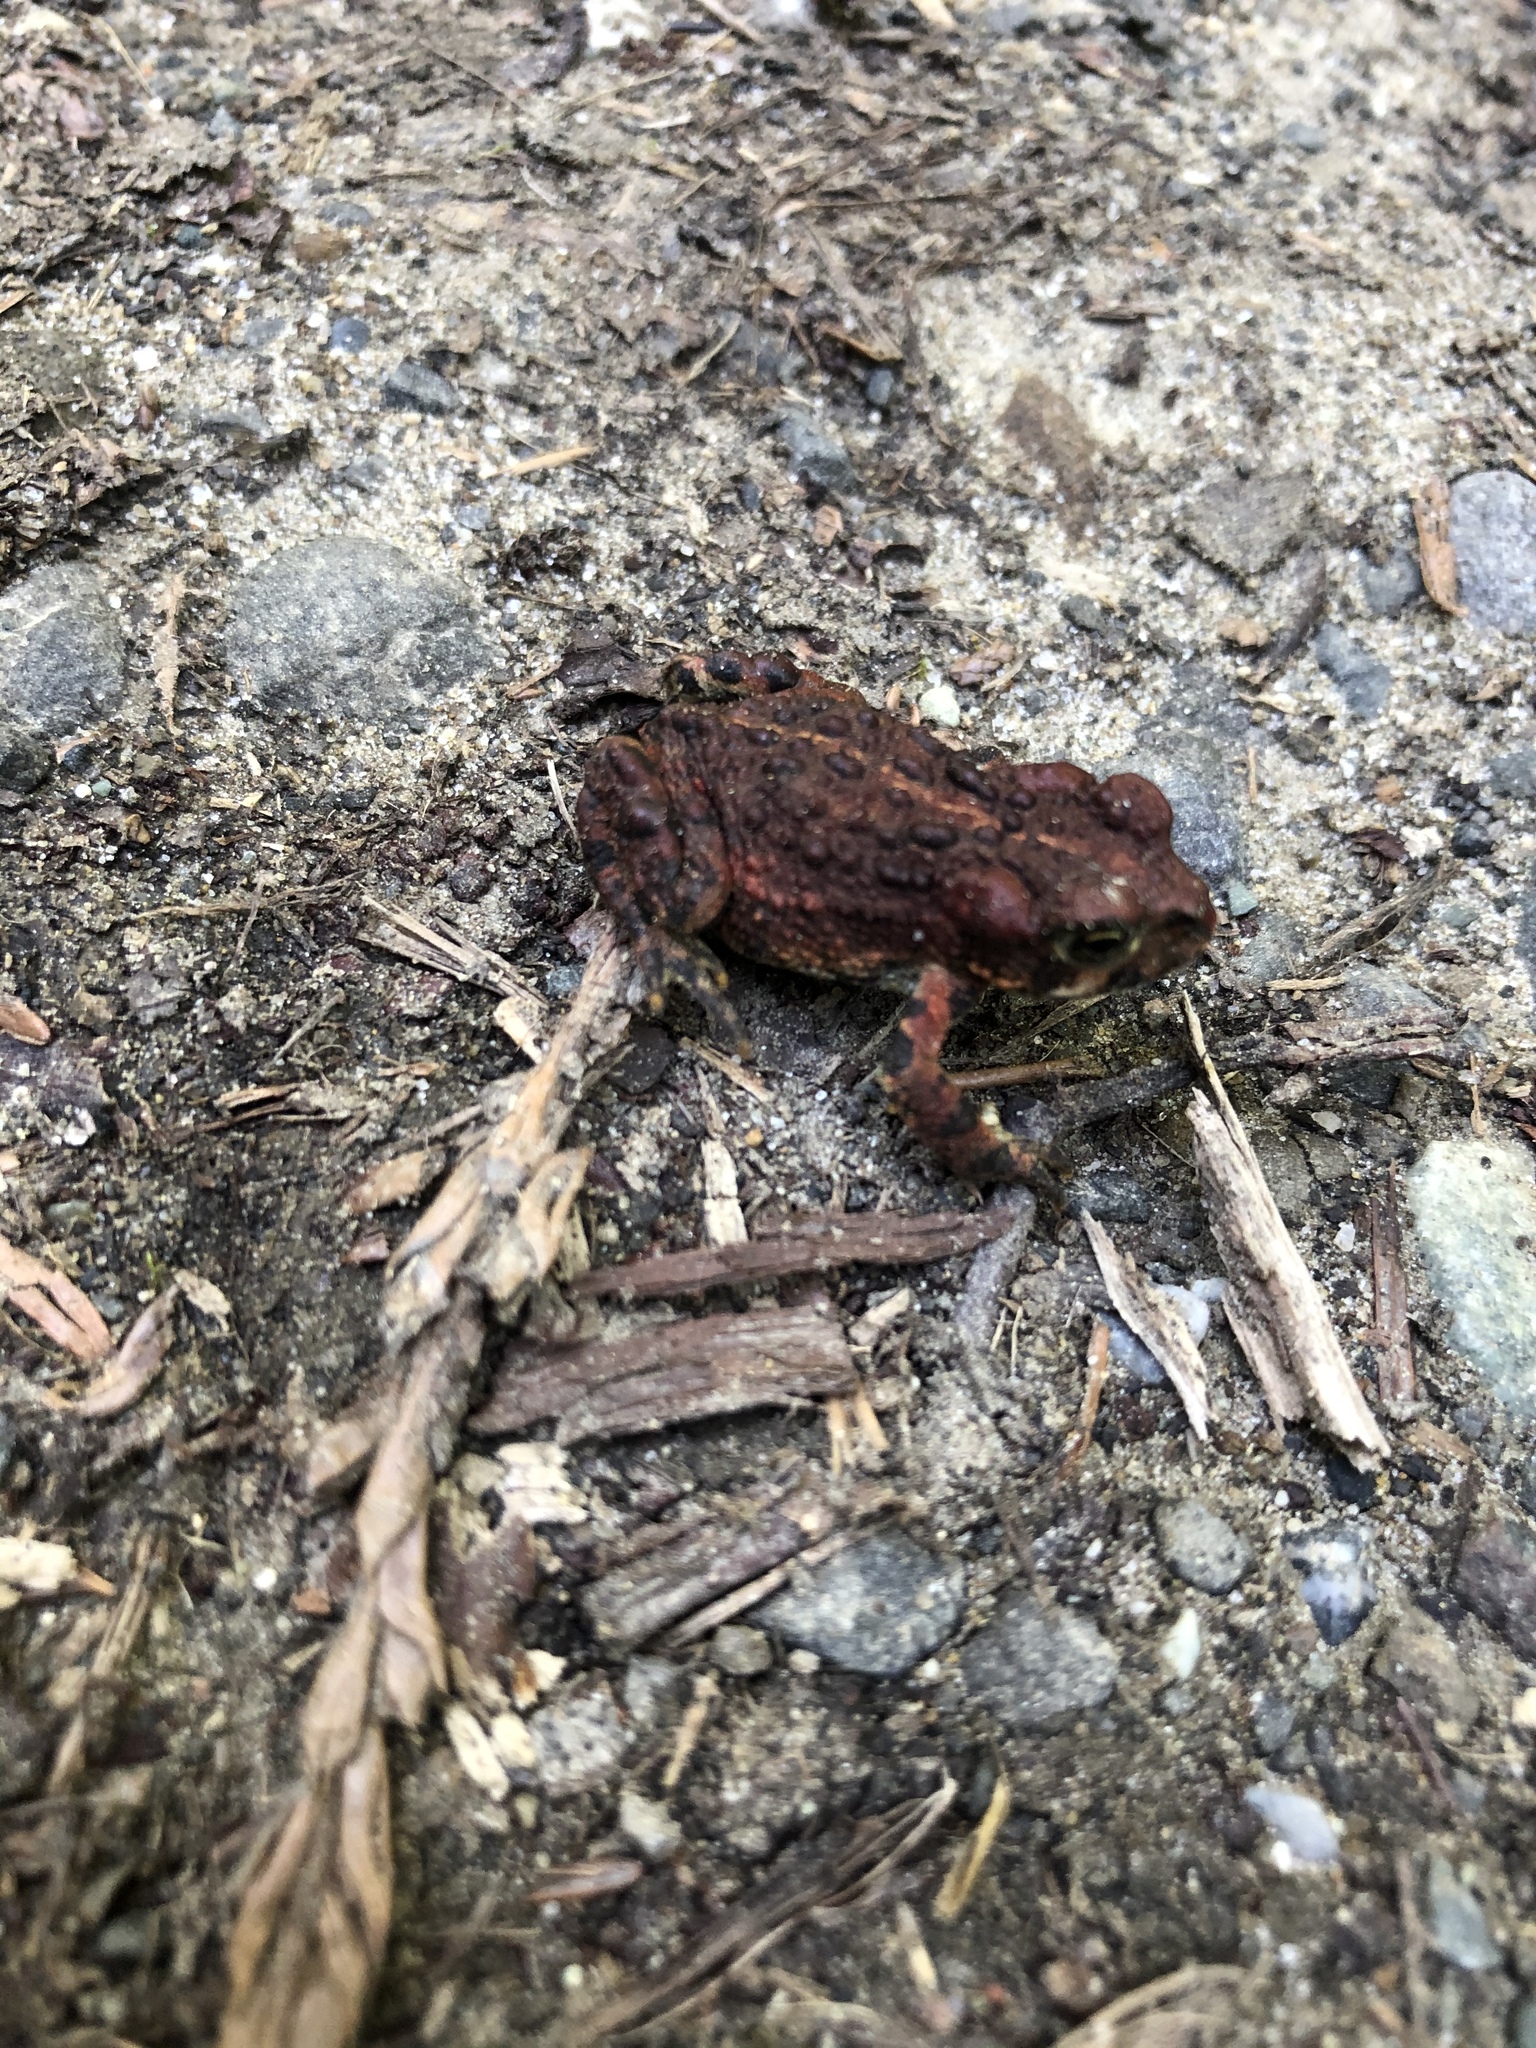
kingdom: Animalia
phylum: Chordata
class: Amphibia
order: Anura
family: Bufonidae
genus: Anaxyrus
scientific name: Anaxyrus boreas
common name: Western toad
